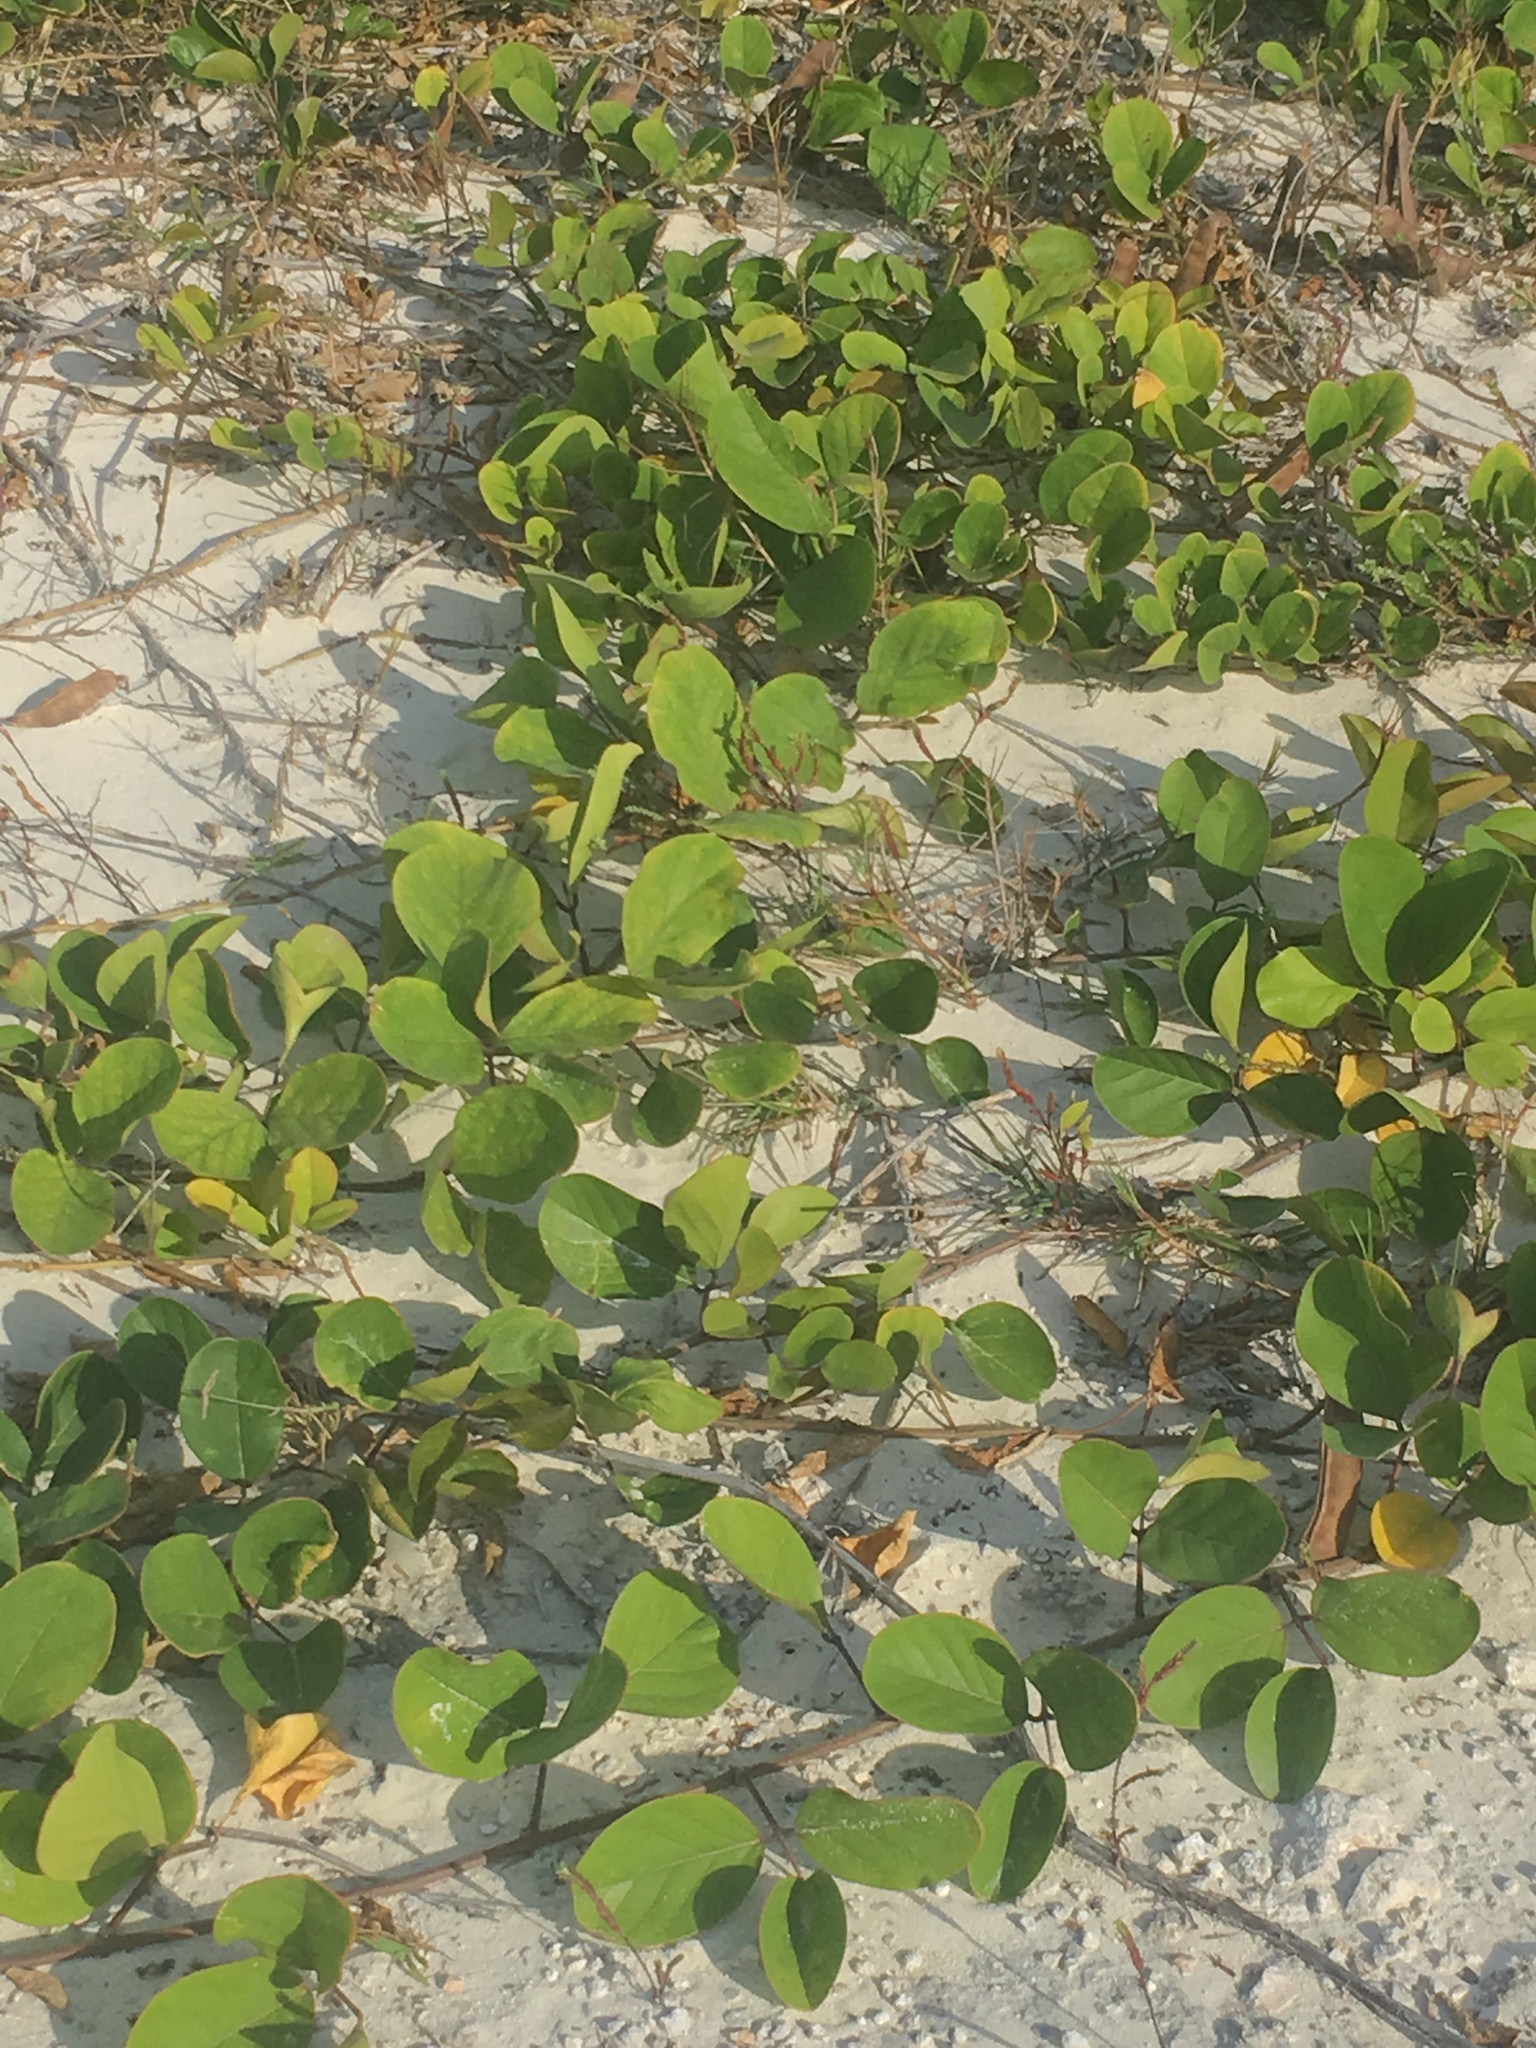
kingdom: Plantae
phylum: Tracheophyta
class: Magnoliopsida
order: Fabales
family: Fabaceae
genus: Canavalia
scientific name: Canavalia rosea
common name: Beach-bean
